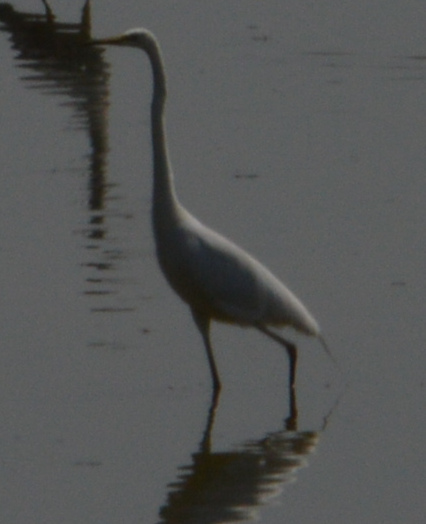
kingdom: Animalia
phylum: Chordata
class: Aves
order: Pelecaniformes
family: Ardeidae
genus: Ardea
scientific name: Ardea alba
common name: Great egret
